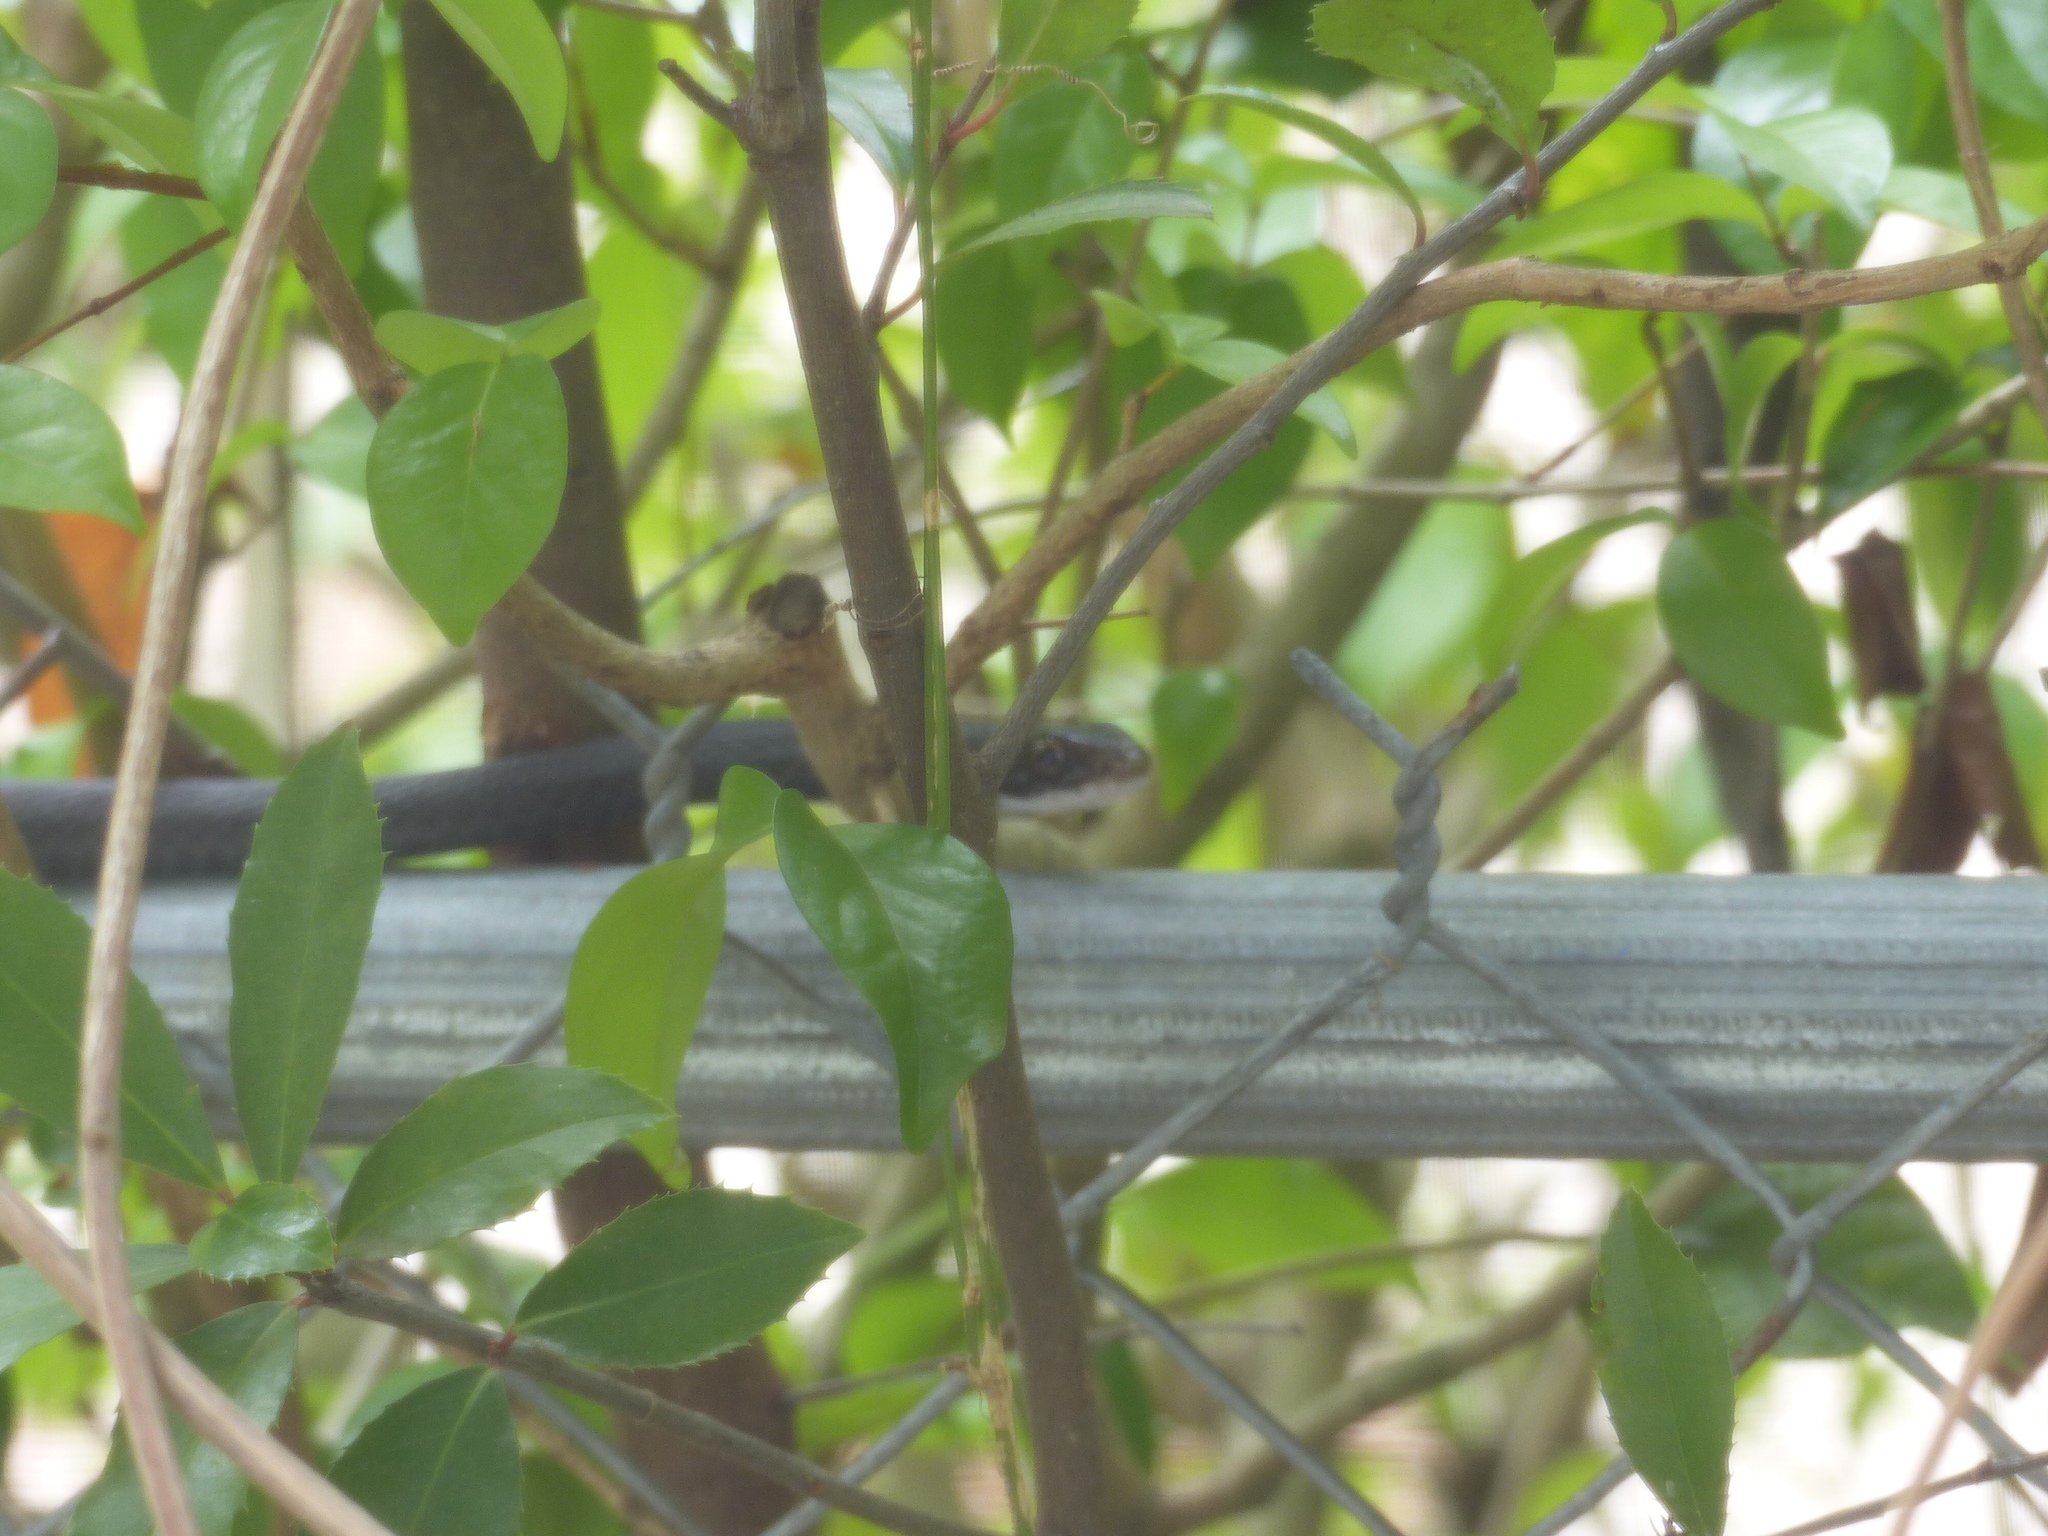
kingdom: Animalia
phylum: Chordata
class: Squamata
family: Colubridae
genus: Coluber
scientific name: Coluber constrictor
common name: Eastern racer
